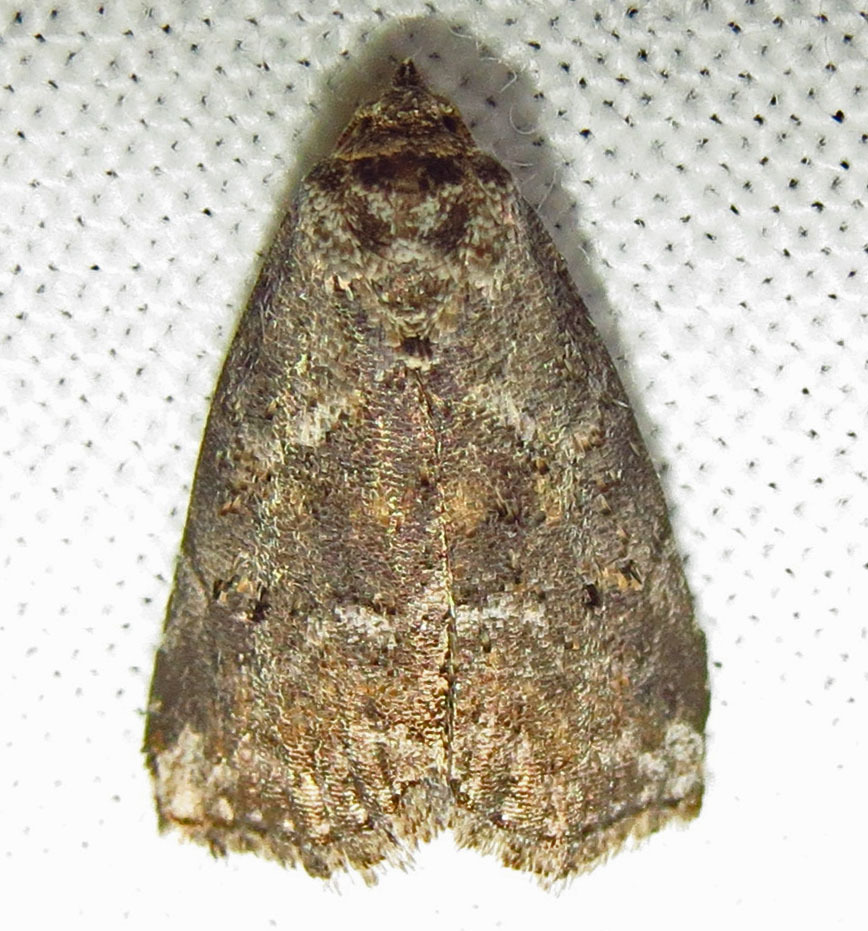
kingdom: Animalia
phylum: Arthropoda
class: Insecta
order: Lepidoptera
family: Erebidae
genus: Hyperstrotia
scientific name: Hyperstrotia nana
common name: White-lined graylet
